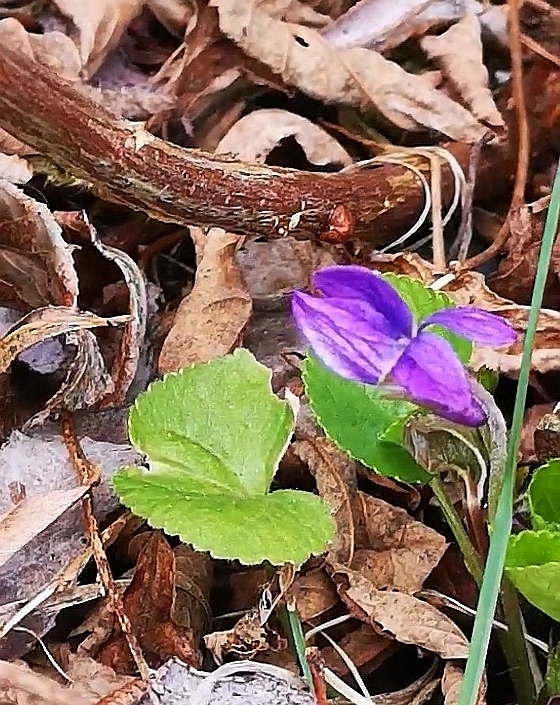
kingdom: Plantae
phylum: Tracheophyta
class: Magnoliopsida
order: Malpighiales
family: Violaceae
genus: Viola
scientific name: Viola odorata
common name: Sweet violet
